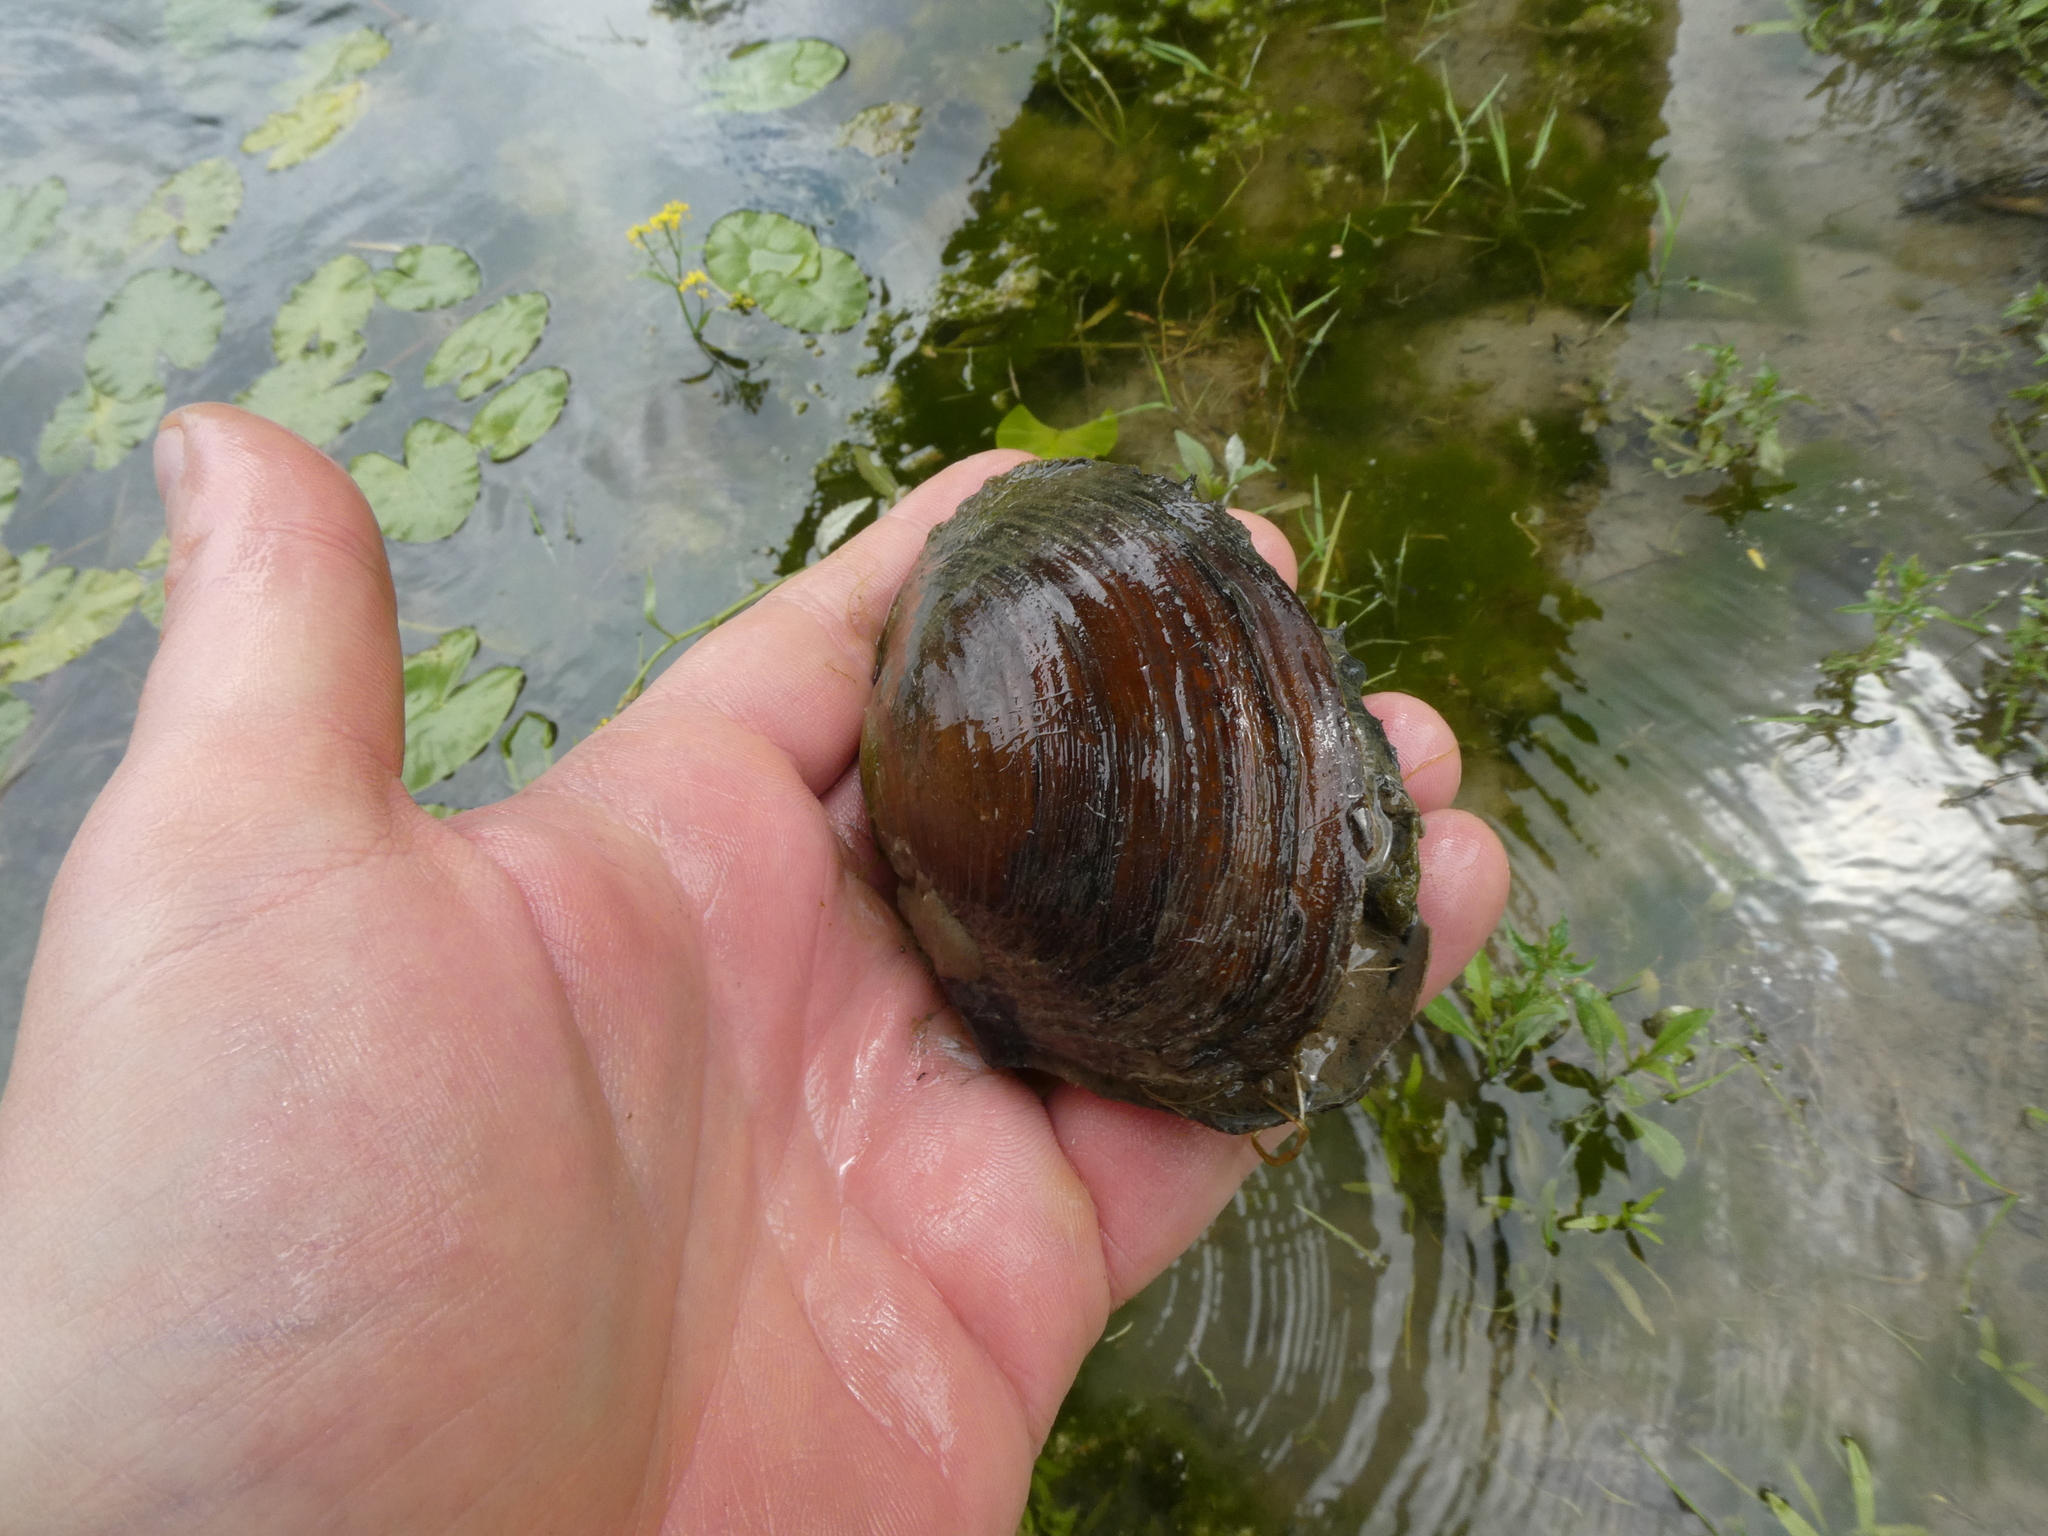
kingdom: Animalia
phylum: Mollusca
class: Bivalvia
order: Unionida
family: Unionidae
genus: Sinanodonta
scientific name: Sinanodonta woodiana
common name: Chinese pond mussel
